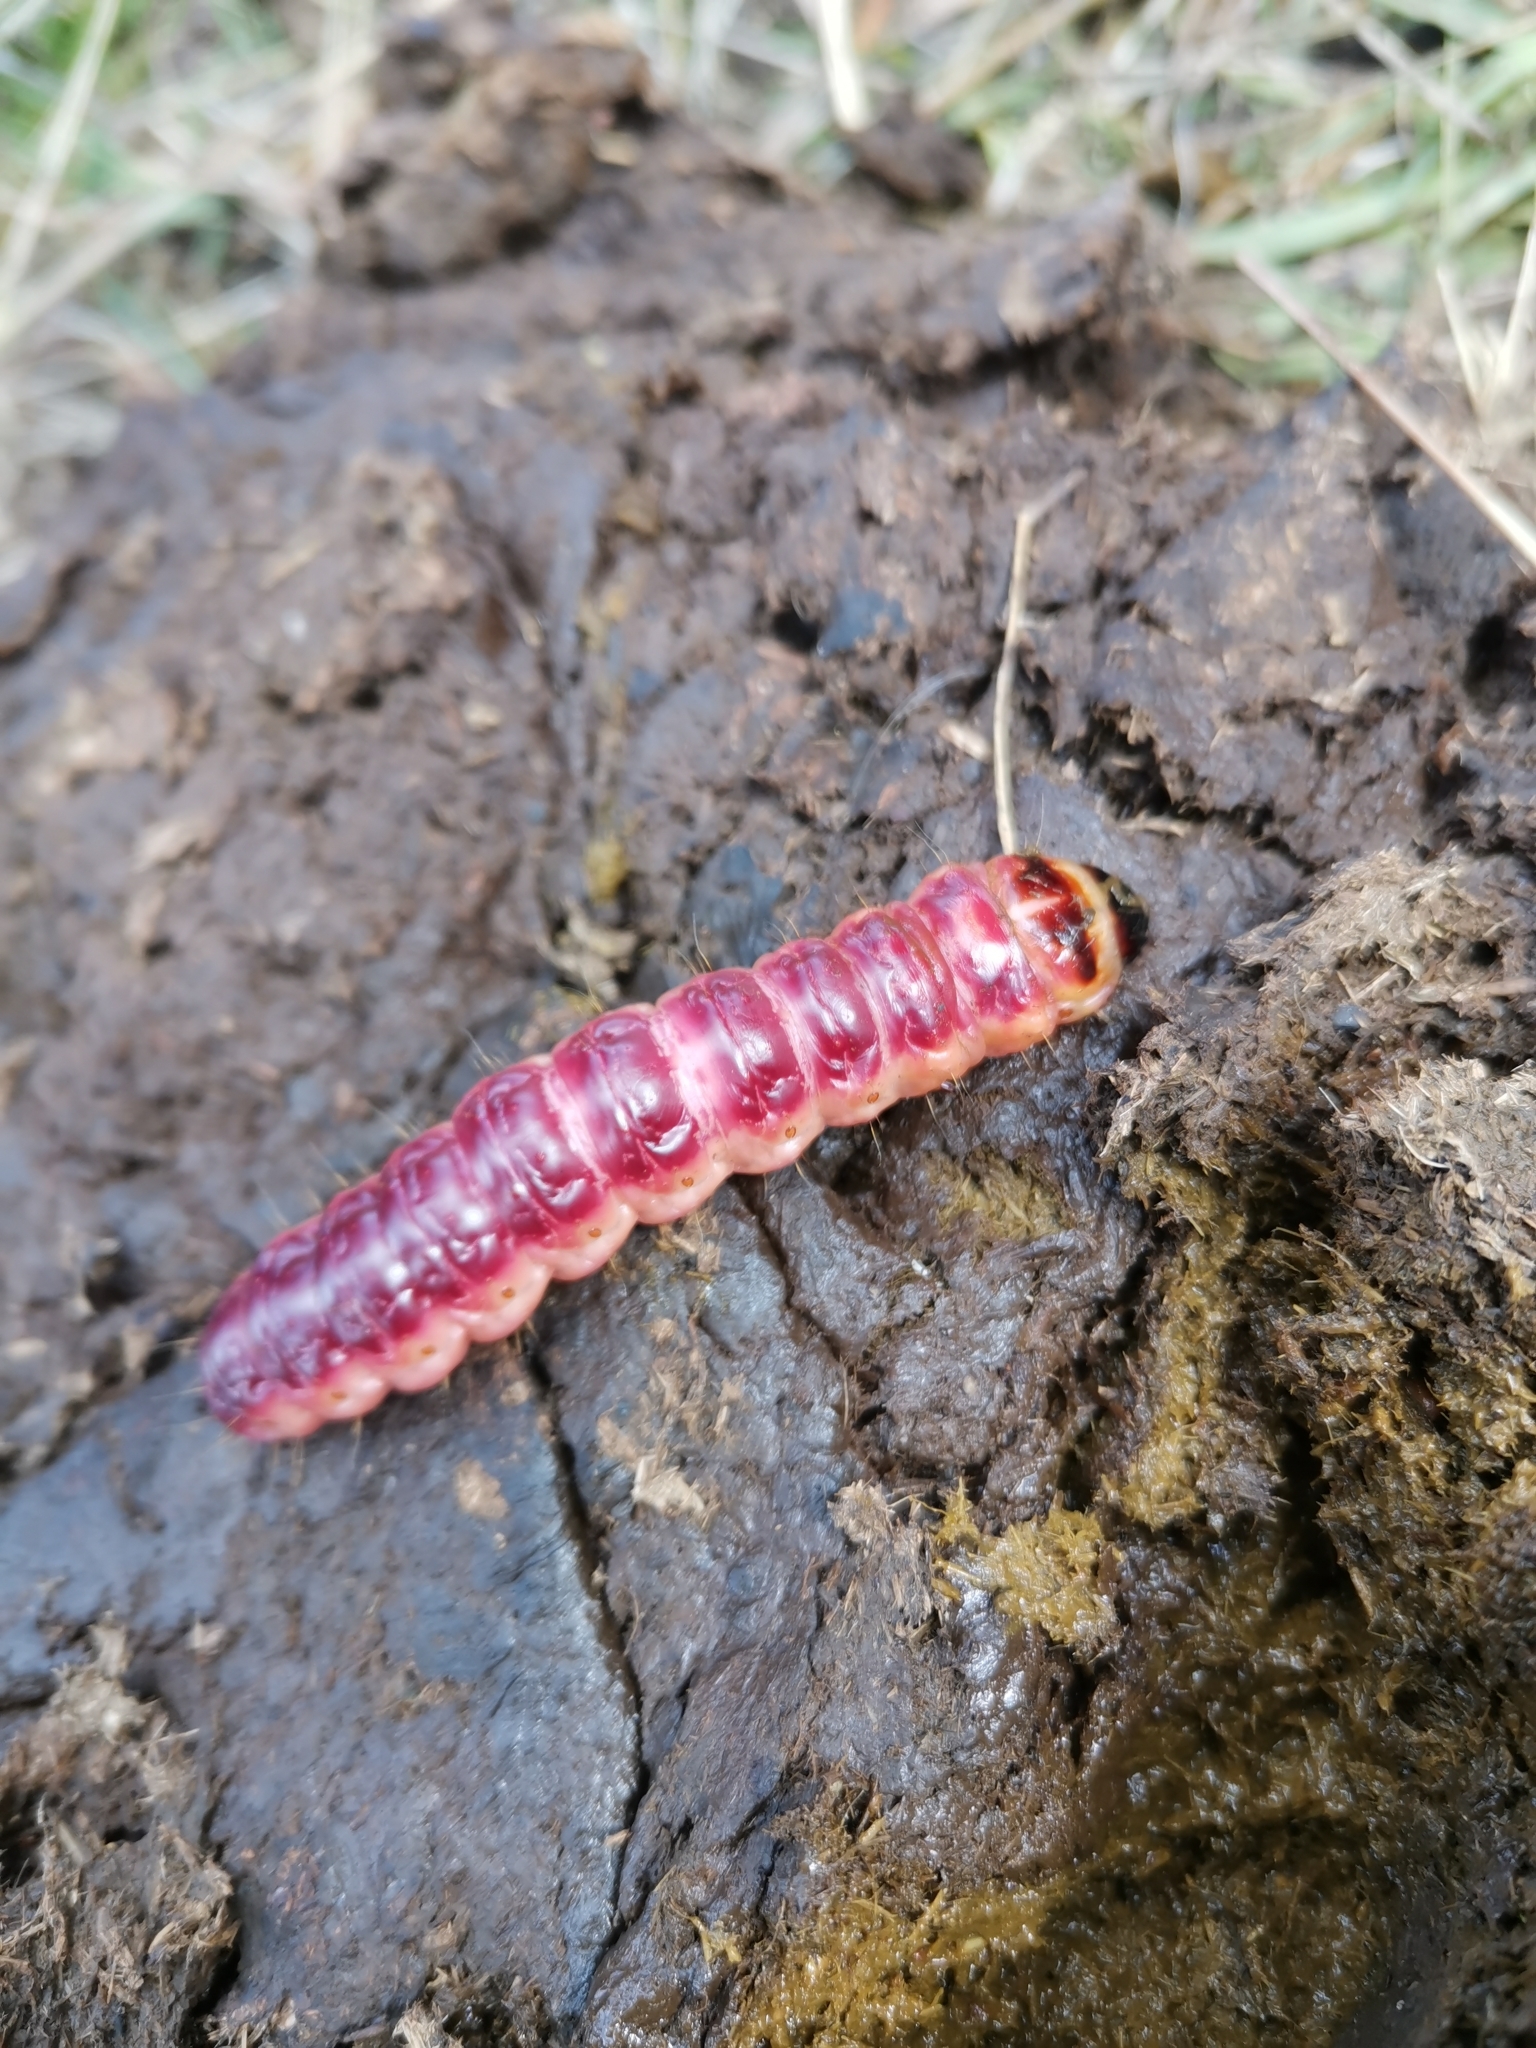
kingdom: Animalia
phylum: Arthropoda
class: Insecta
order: Lepidoptera
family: Cossidae
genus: Cossus
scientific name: Cossus cossus
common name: Goat moth
